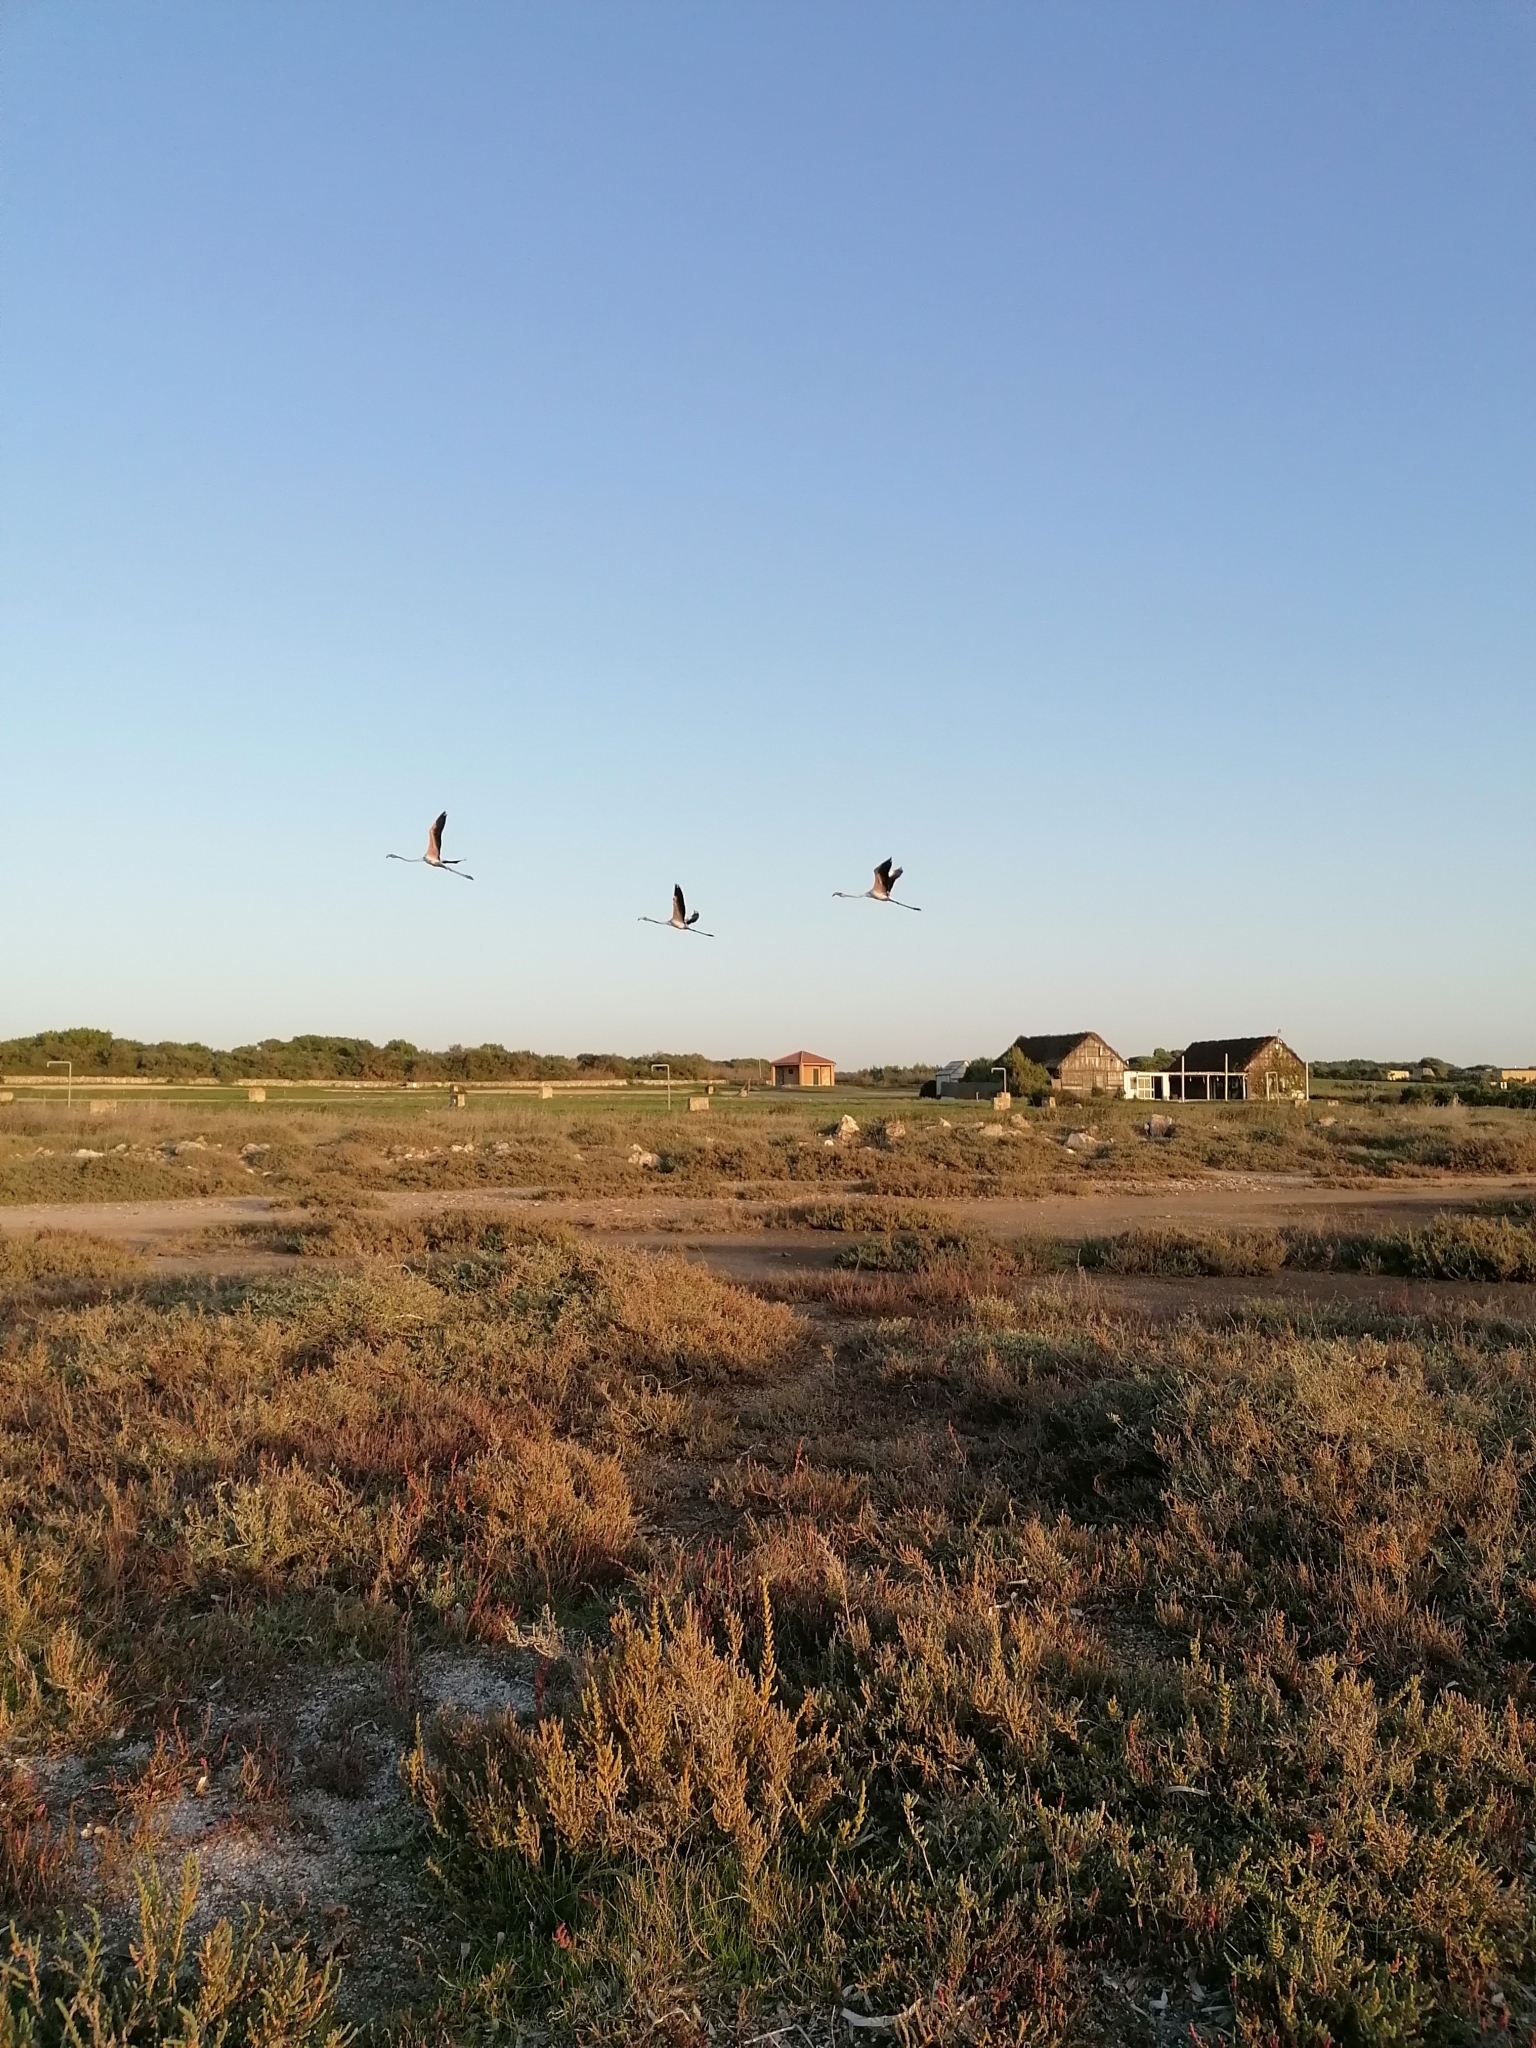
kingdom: Animalia
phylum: Chordata
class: Aves
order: Phoenicopteriformes
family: Phoenicopteridae
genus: Phoenicopterus
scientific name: Phoenicopterus roseus
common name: Greater flamingo
